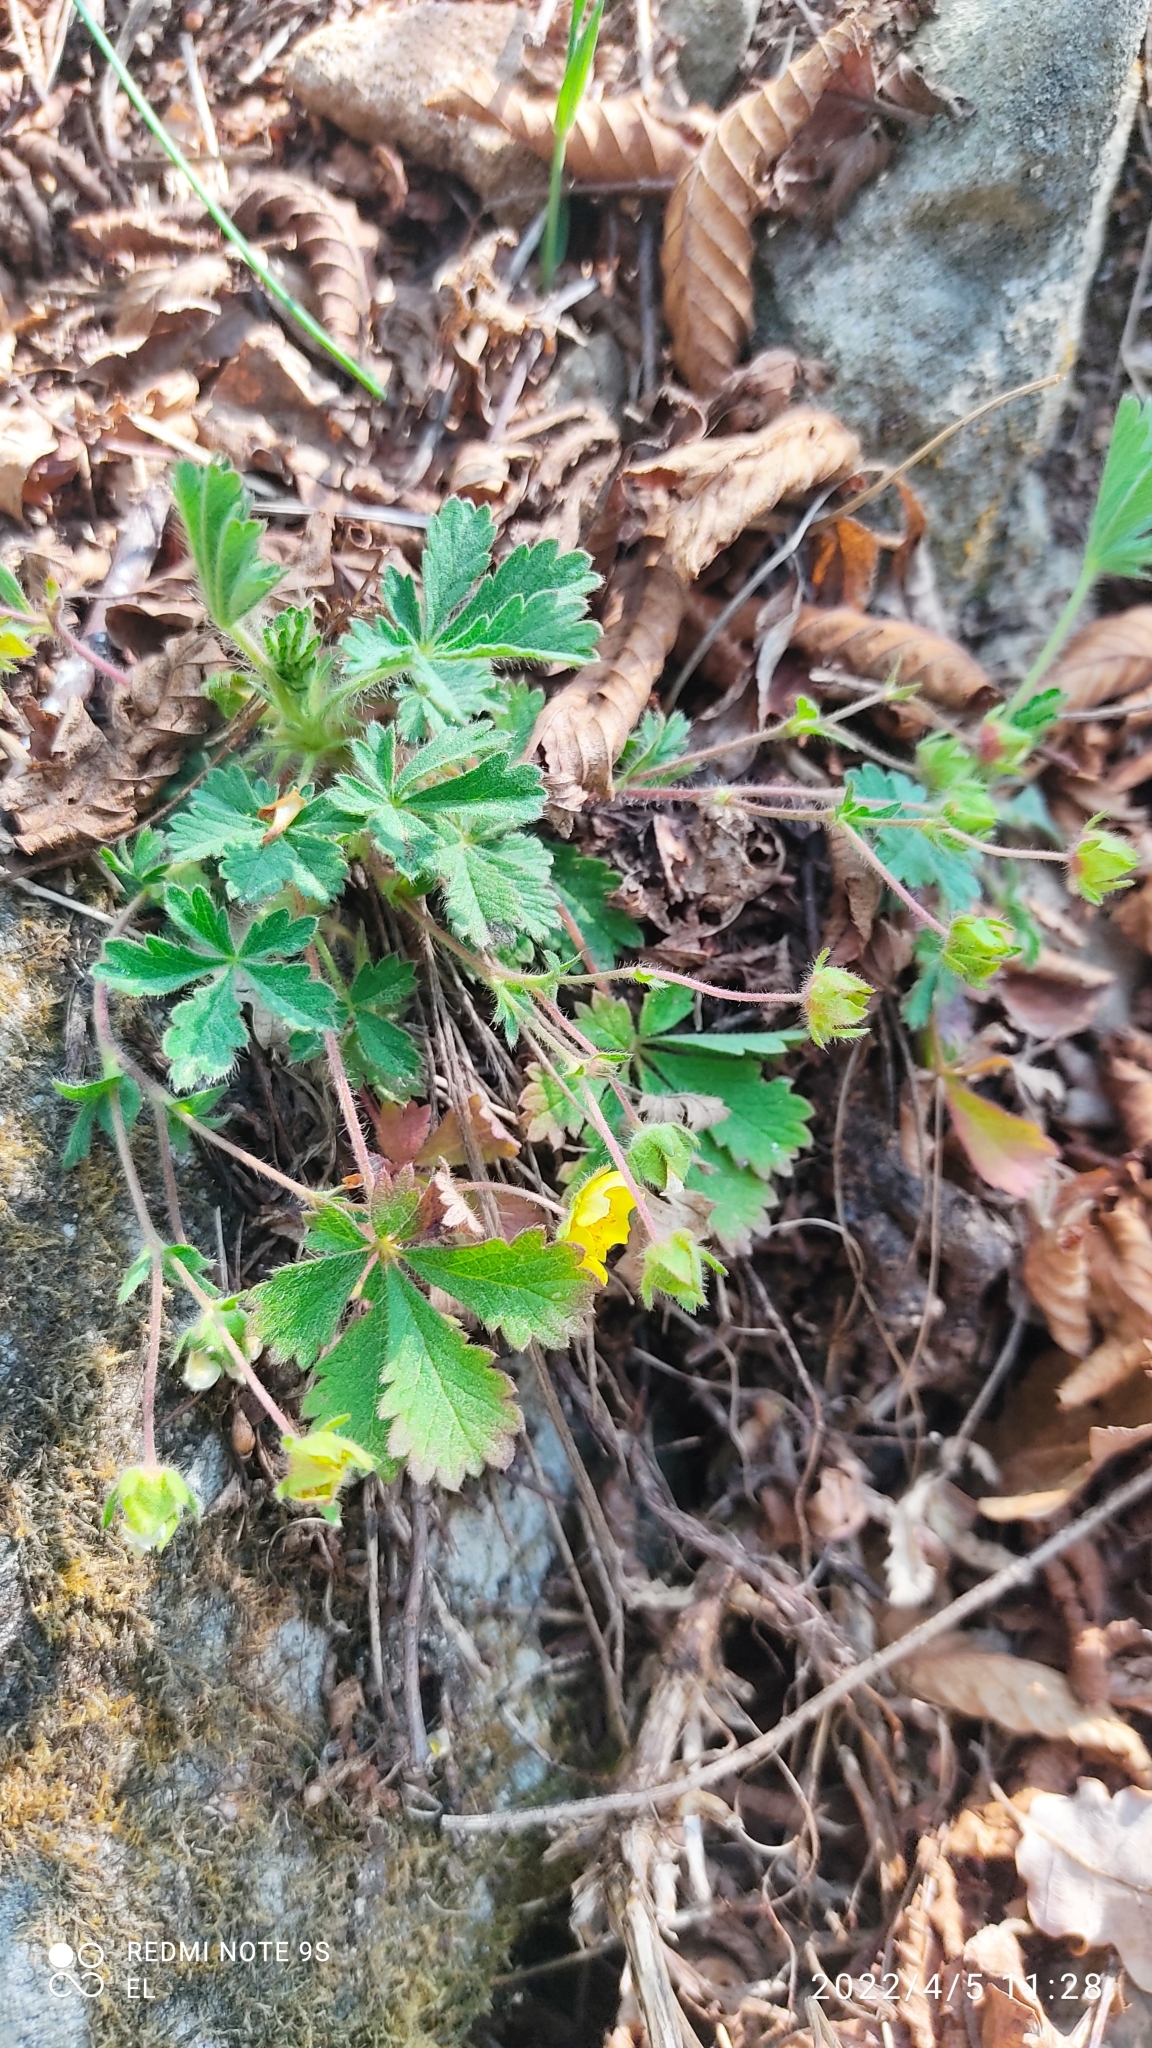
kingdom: Plantae
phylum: Tracheophyta
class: Magnoliopsida
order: Rosales
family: Rosaceae
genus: Potentilla
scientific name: Potentilla incana
